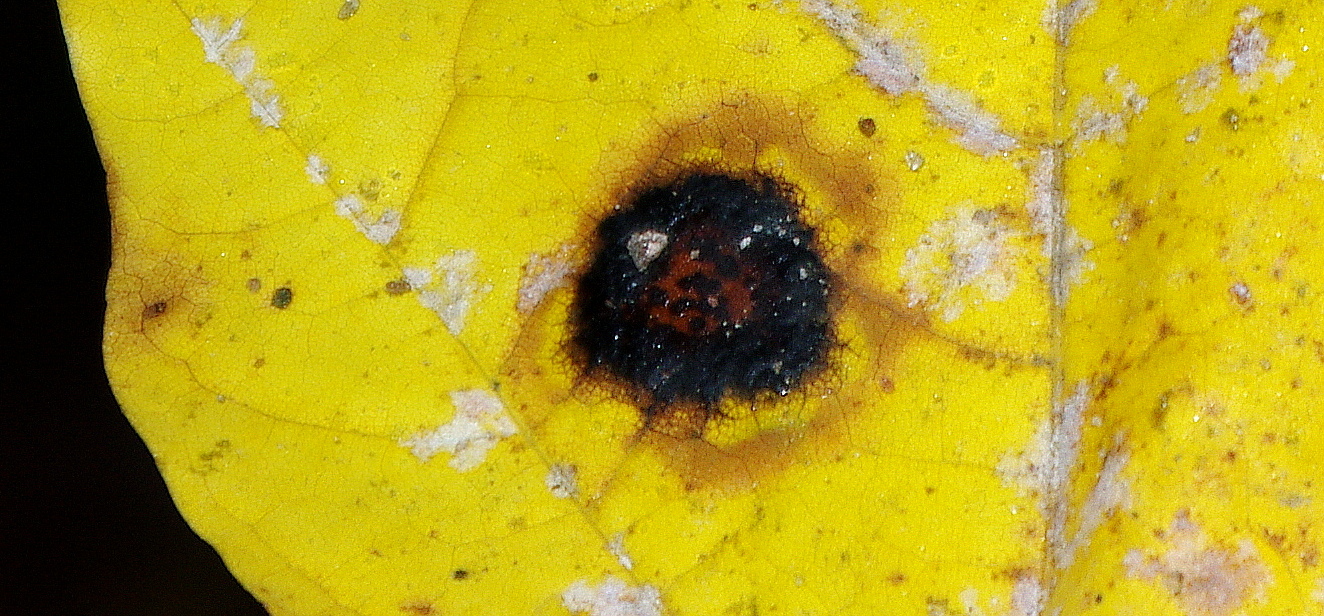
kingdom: Fungi
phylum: Ascomycota
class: Leotiomycetes
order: Rhytismatales
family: Rhytismataceae
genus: Rhytisma
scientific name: Rhytisma acerinum
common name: European tar spot
